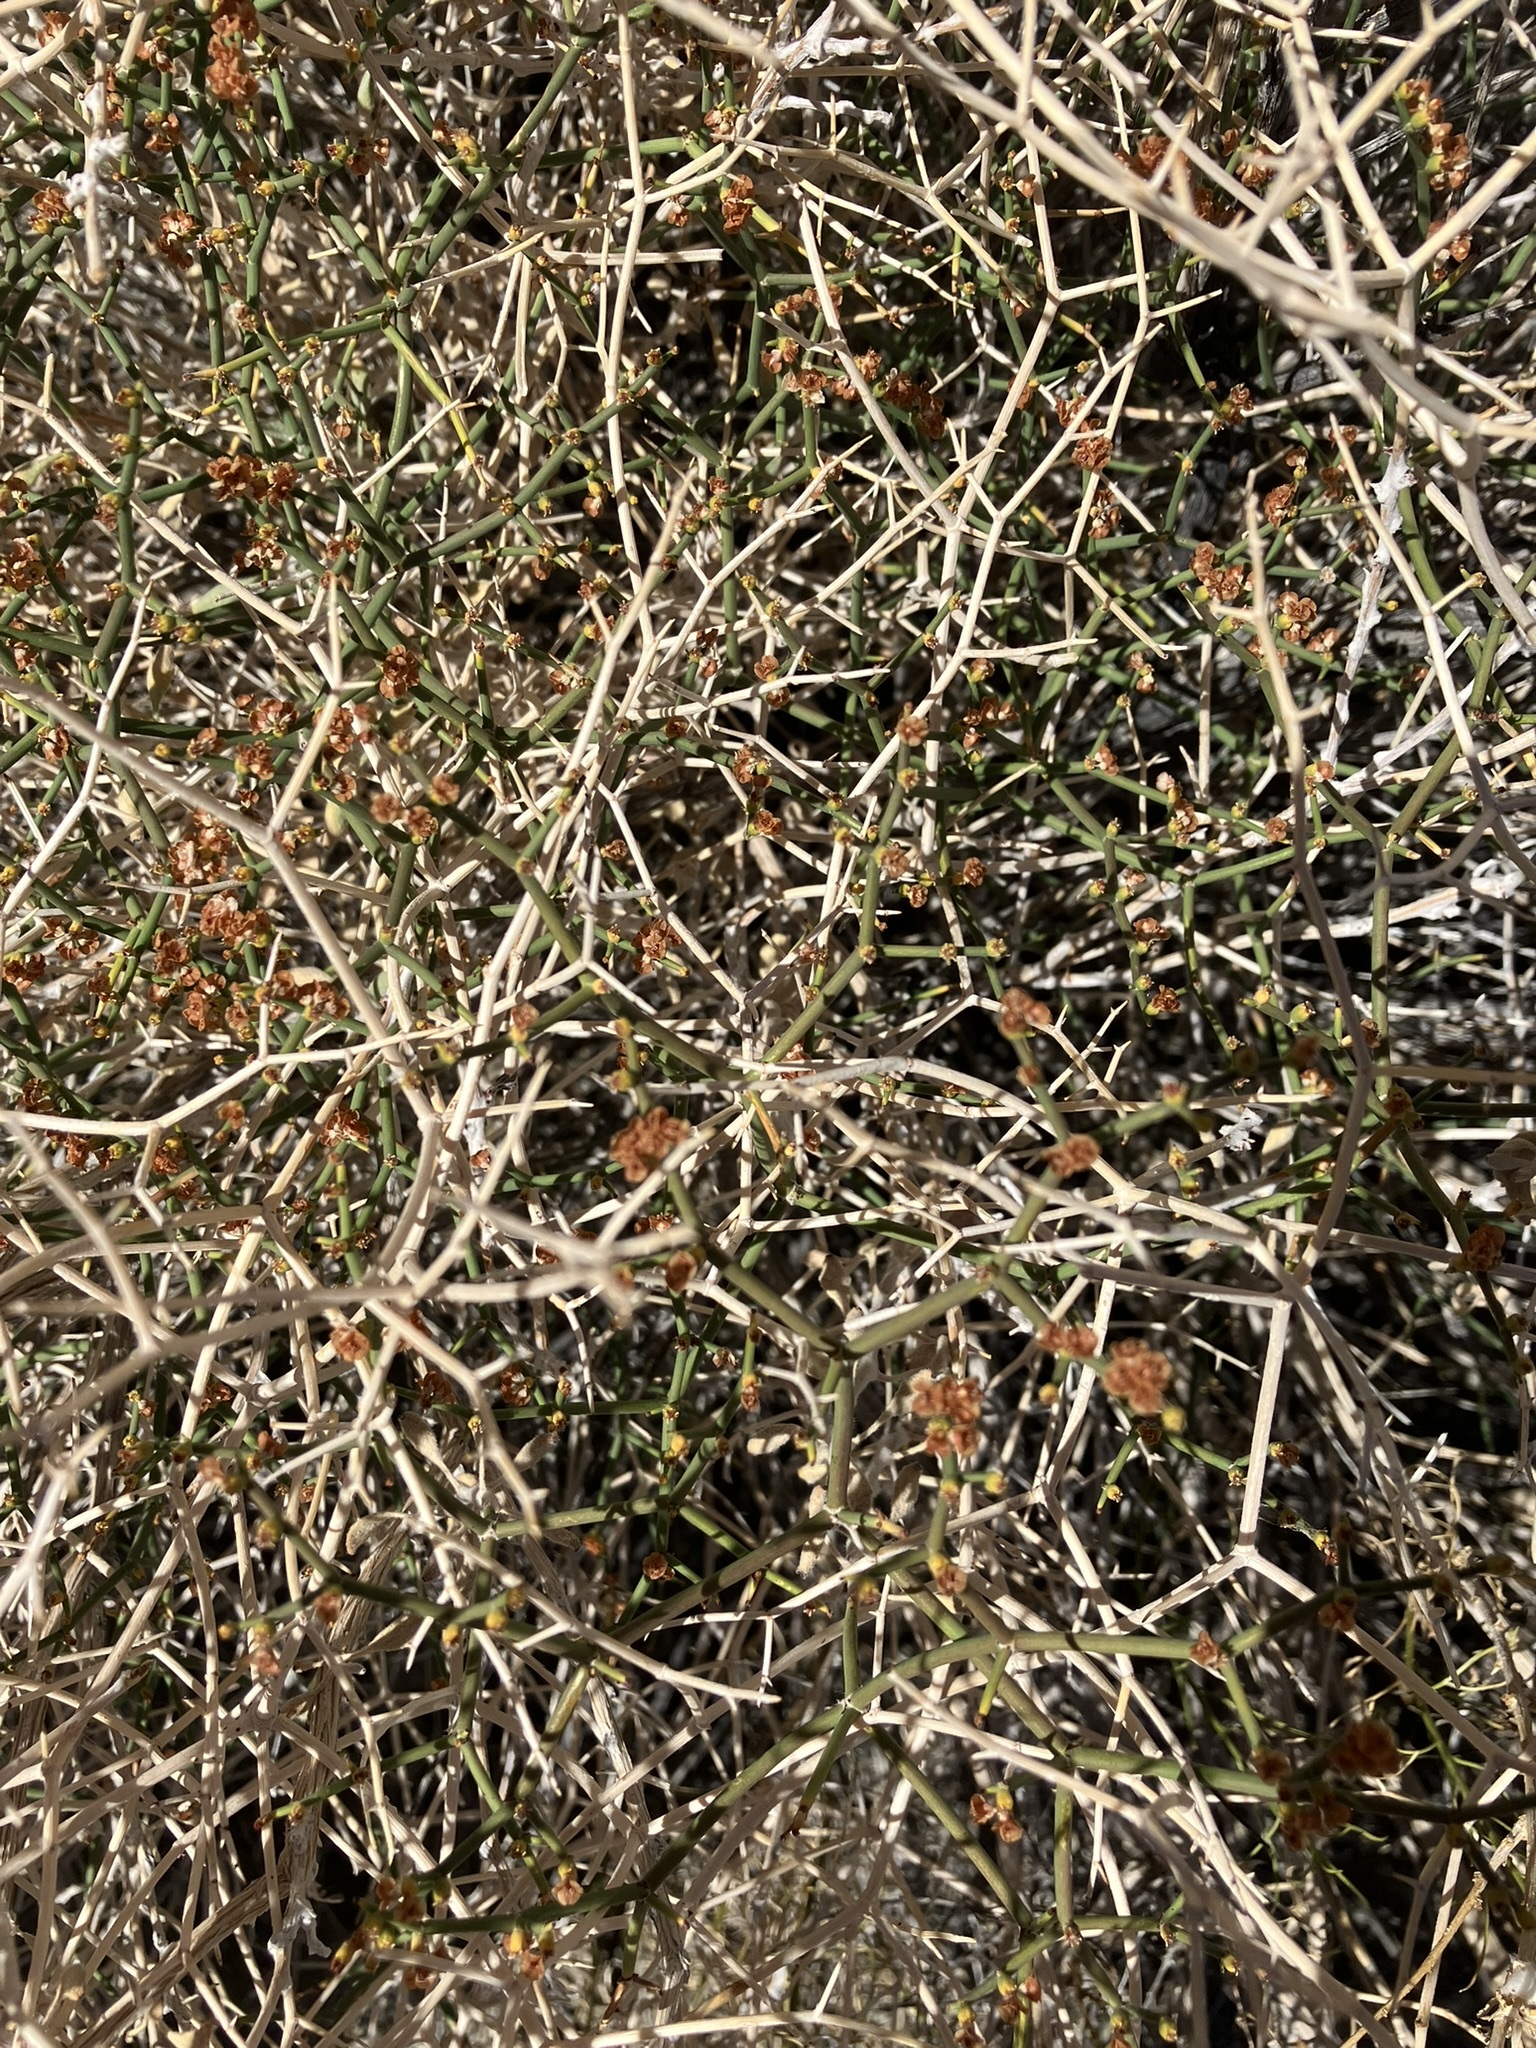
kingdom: Plantae
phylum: Tracheophyta
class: Magnoliopsida
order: Caryophyllales
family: Polygonaceae
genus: Eriogonum
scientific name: Eriogonum heermannii
